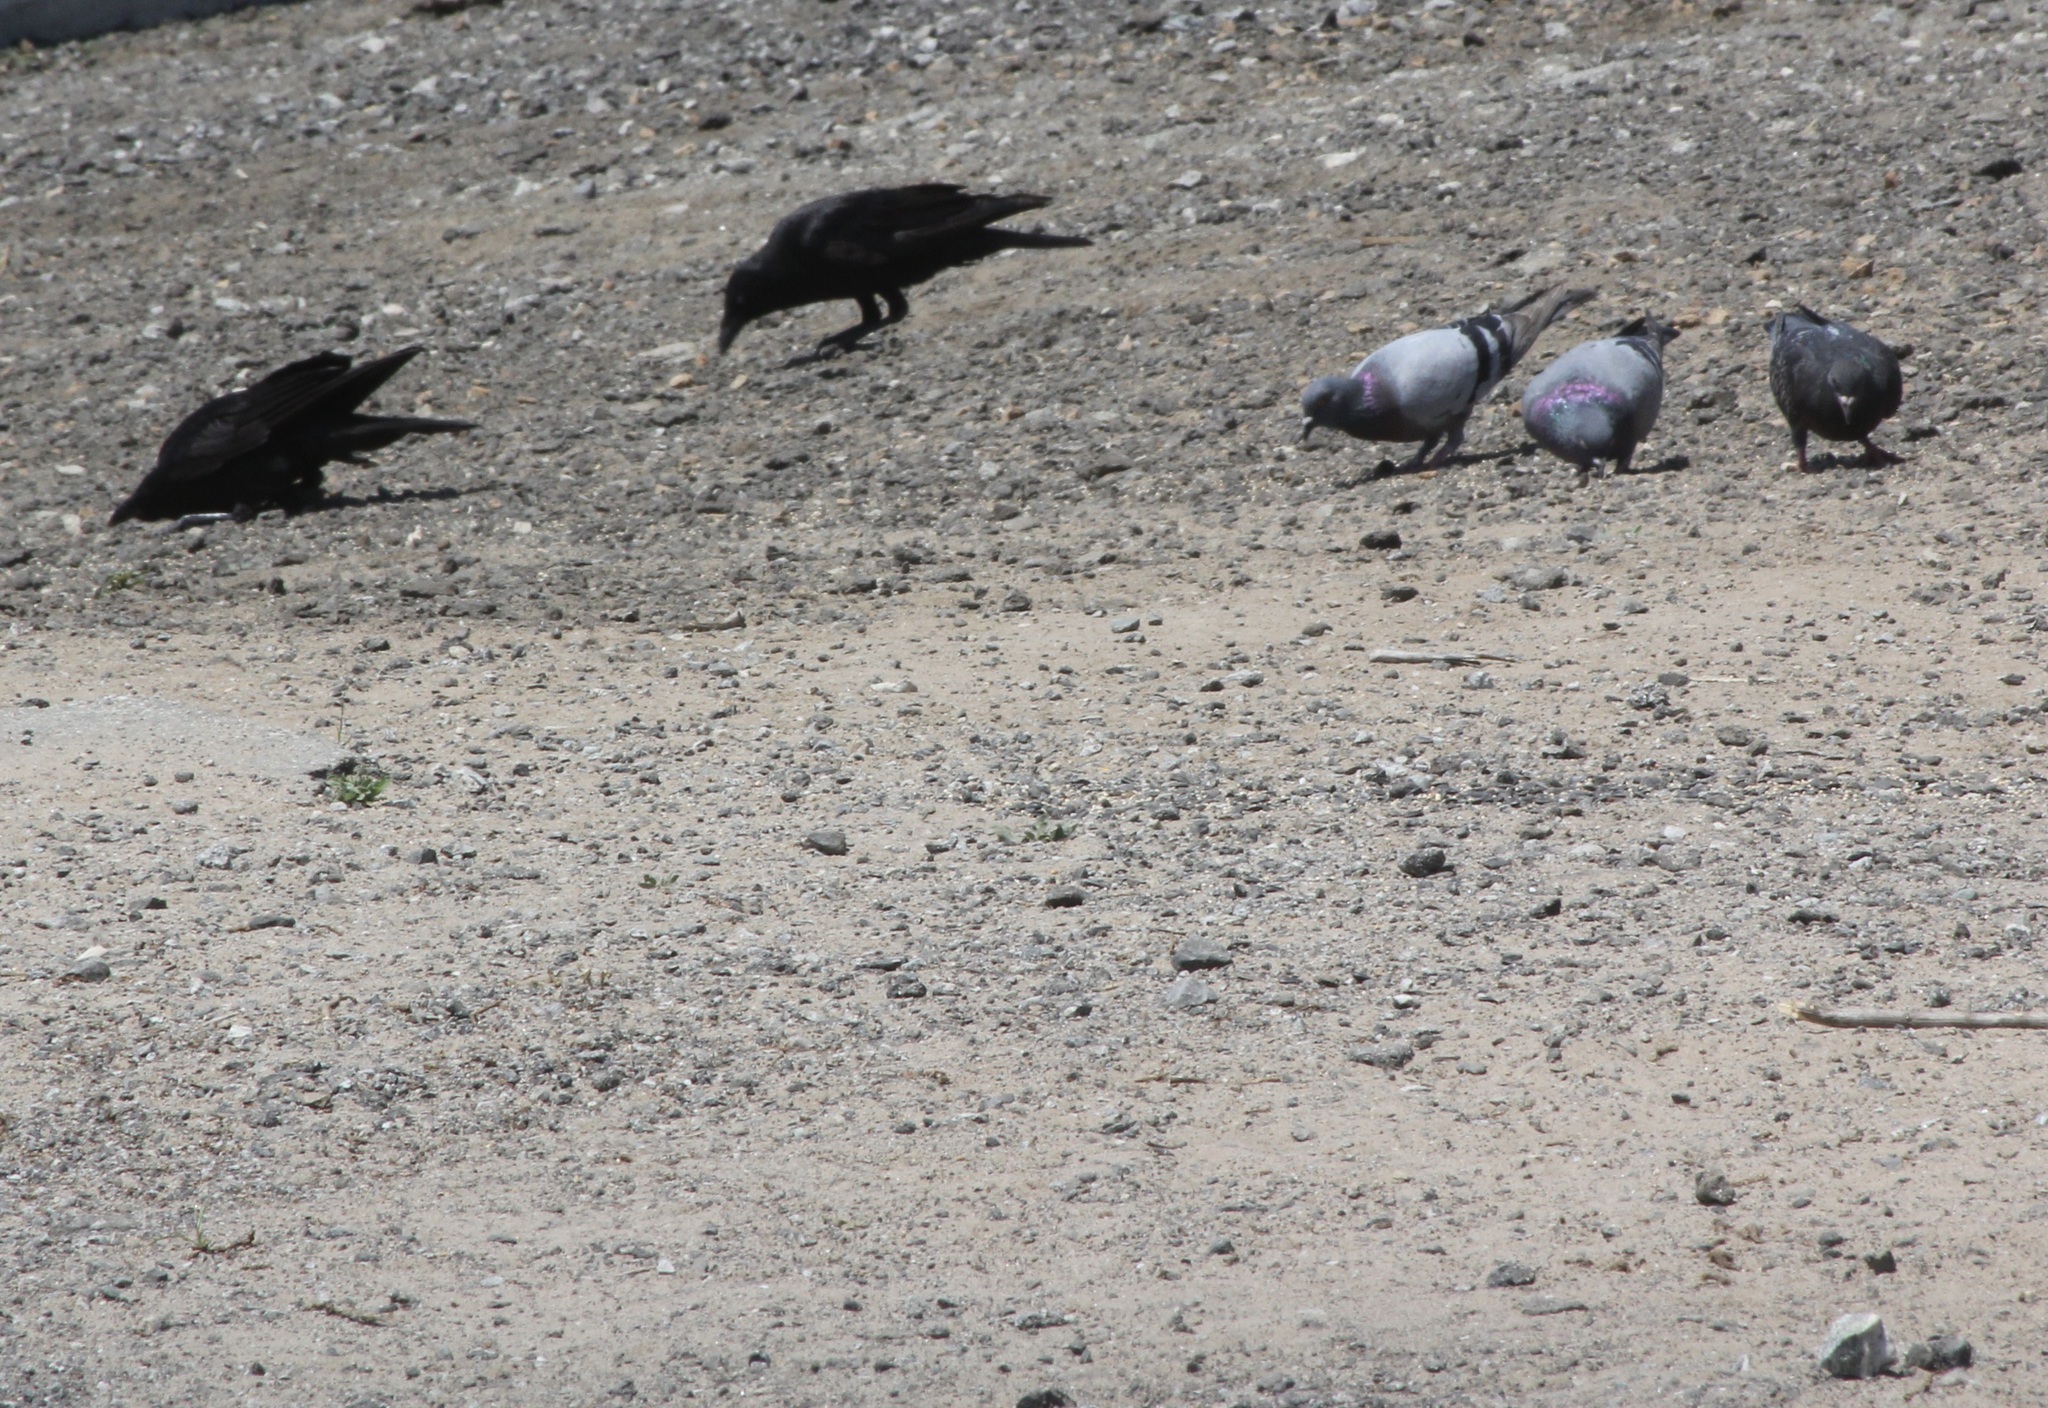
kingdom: Animalia
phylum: Chordata
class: Aves
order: Passeriformes
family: Corvidae
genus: Corvus
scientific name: Corvus brachyrhynchos
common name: American crow
